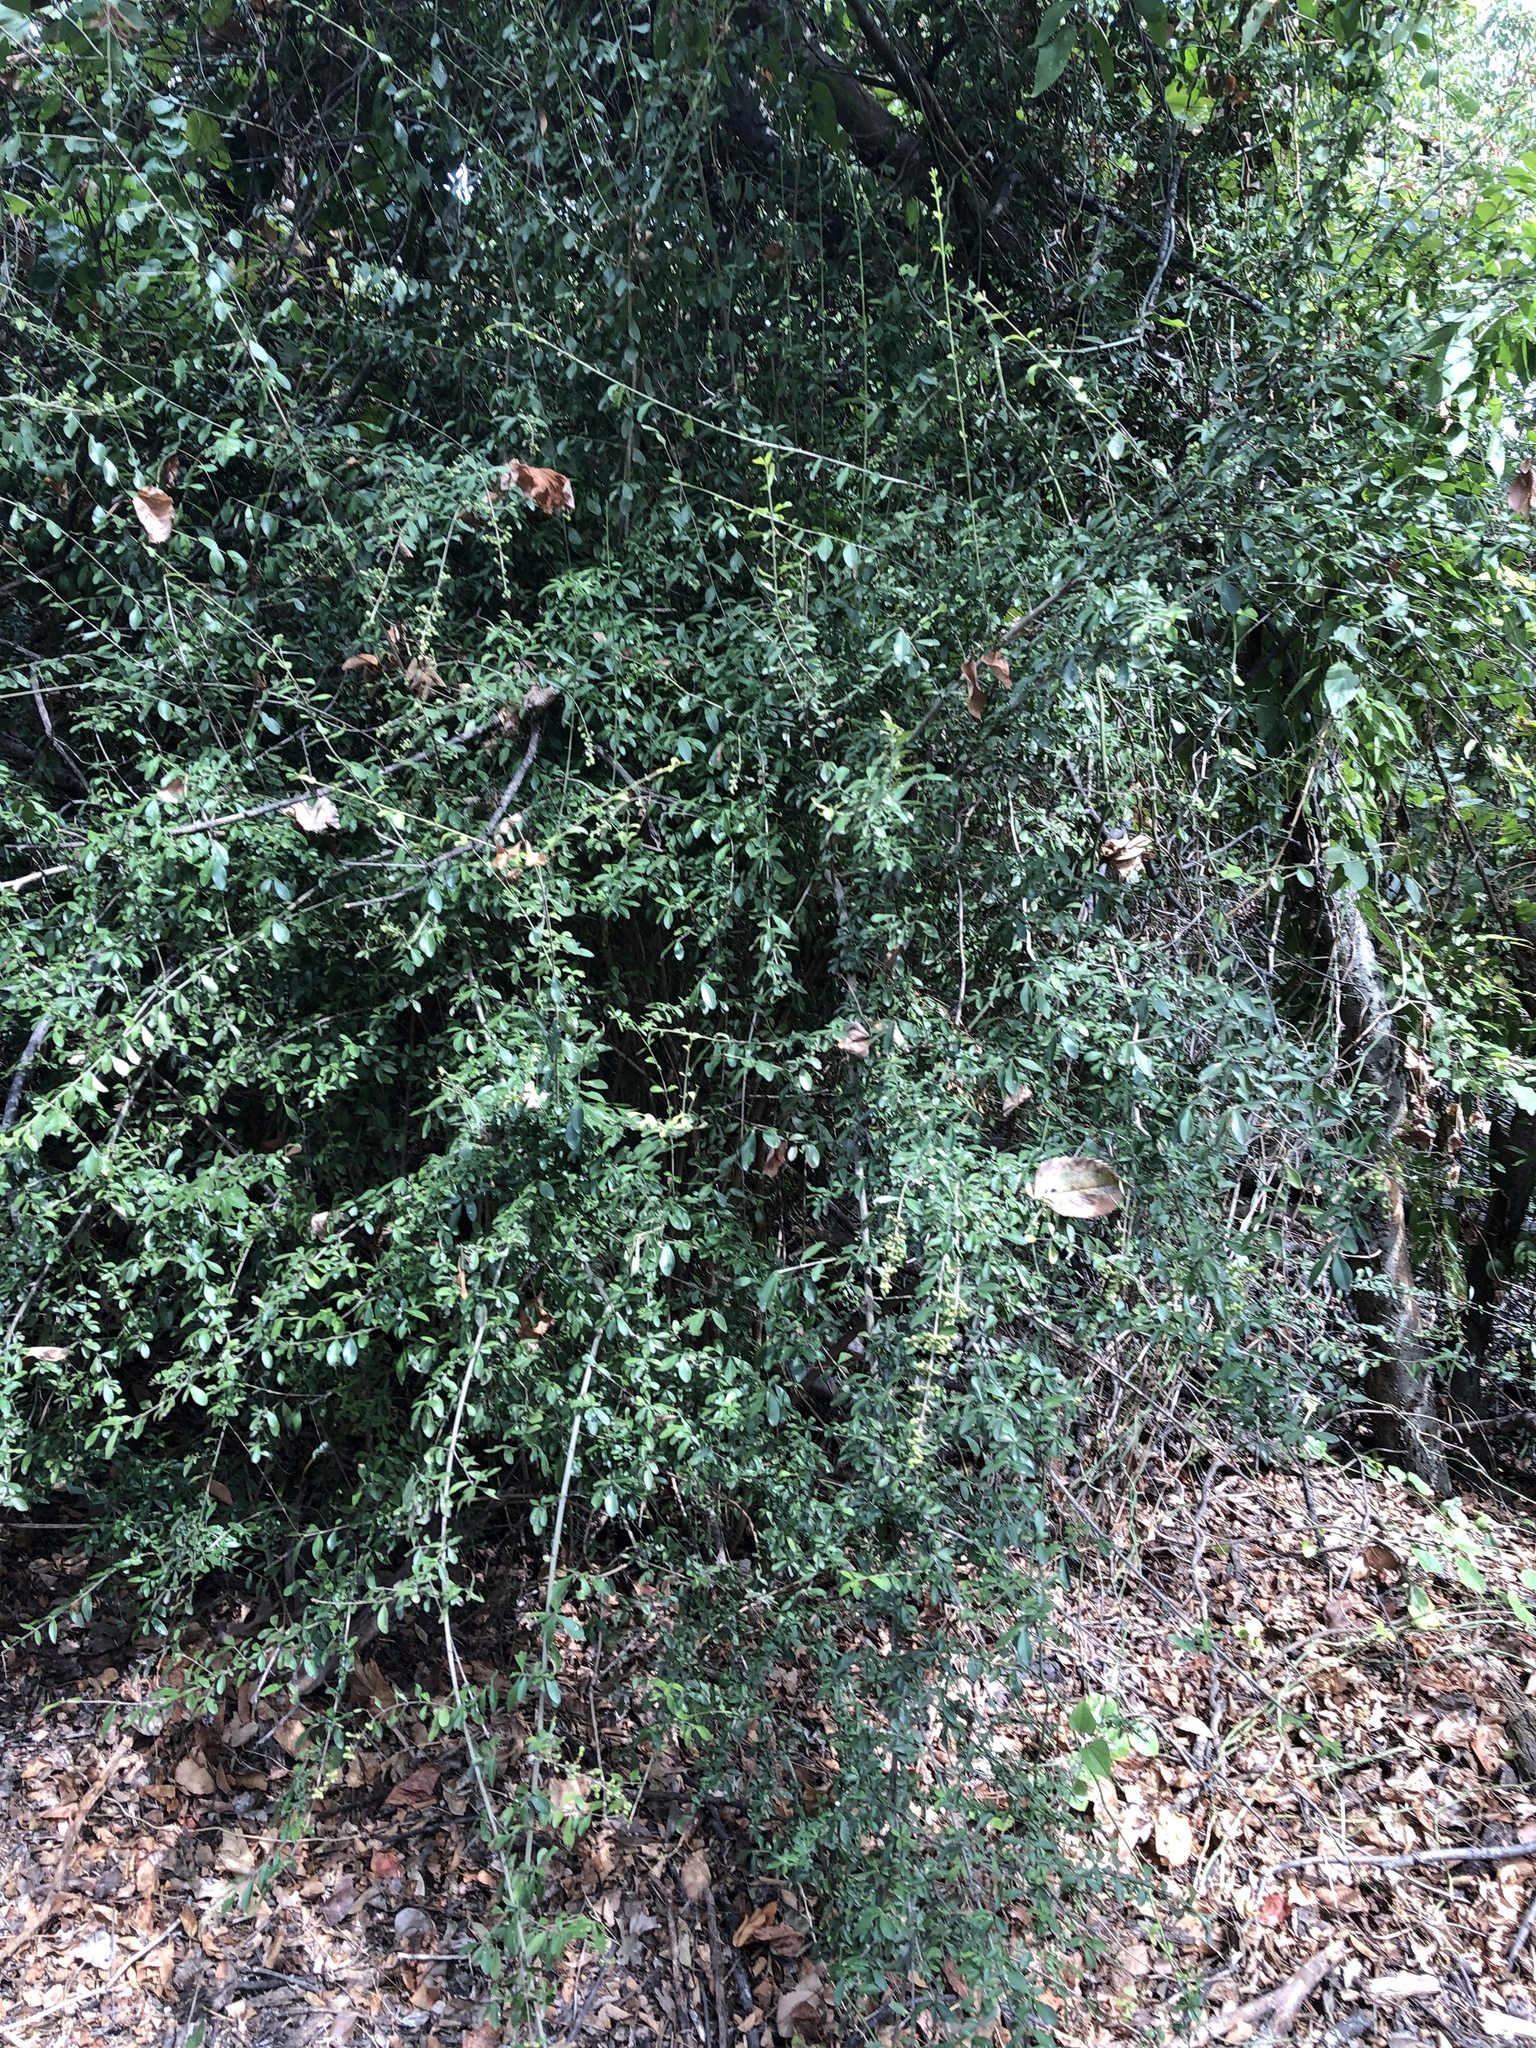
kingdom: Plantae
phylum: Tracheophyta
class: Magnoliopsida
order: Lamiales
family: Oleaceae
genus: Ligustrum
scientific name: Ligustrum quihoui
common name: Waxyleaf privet
